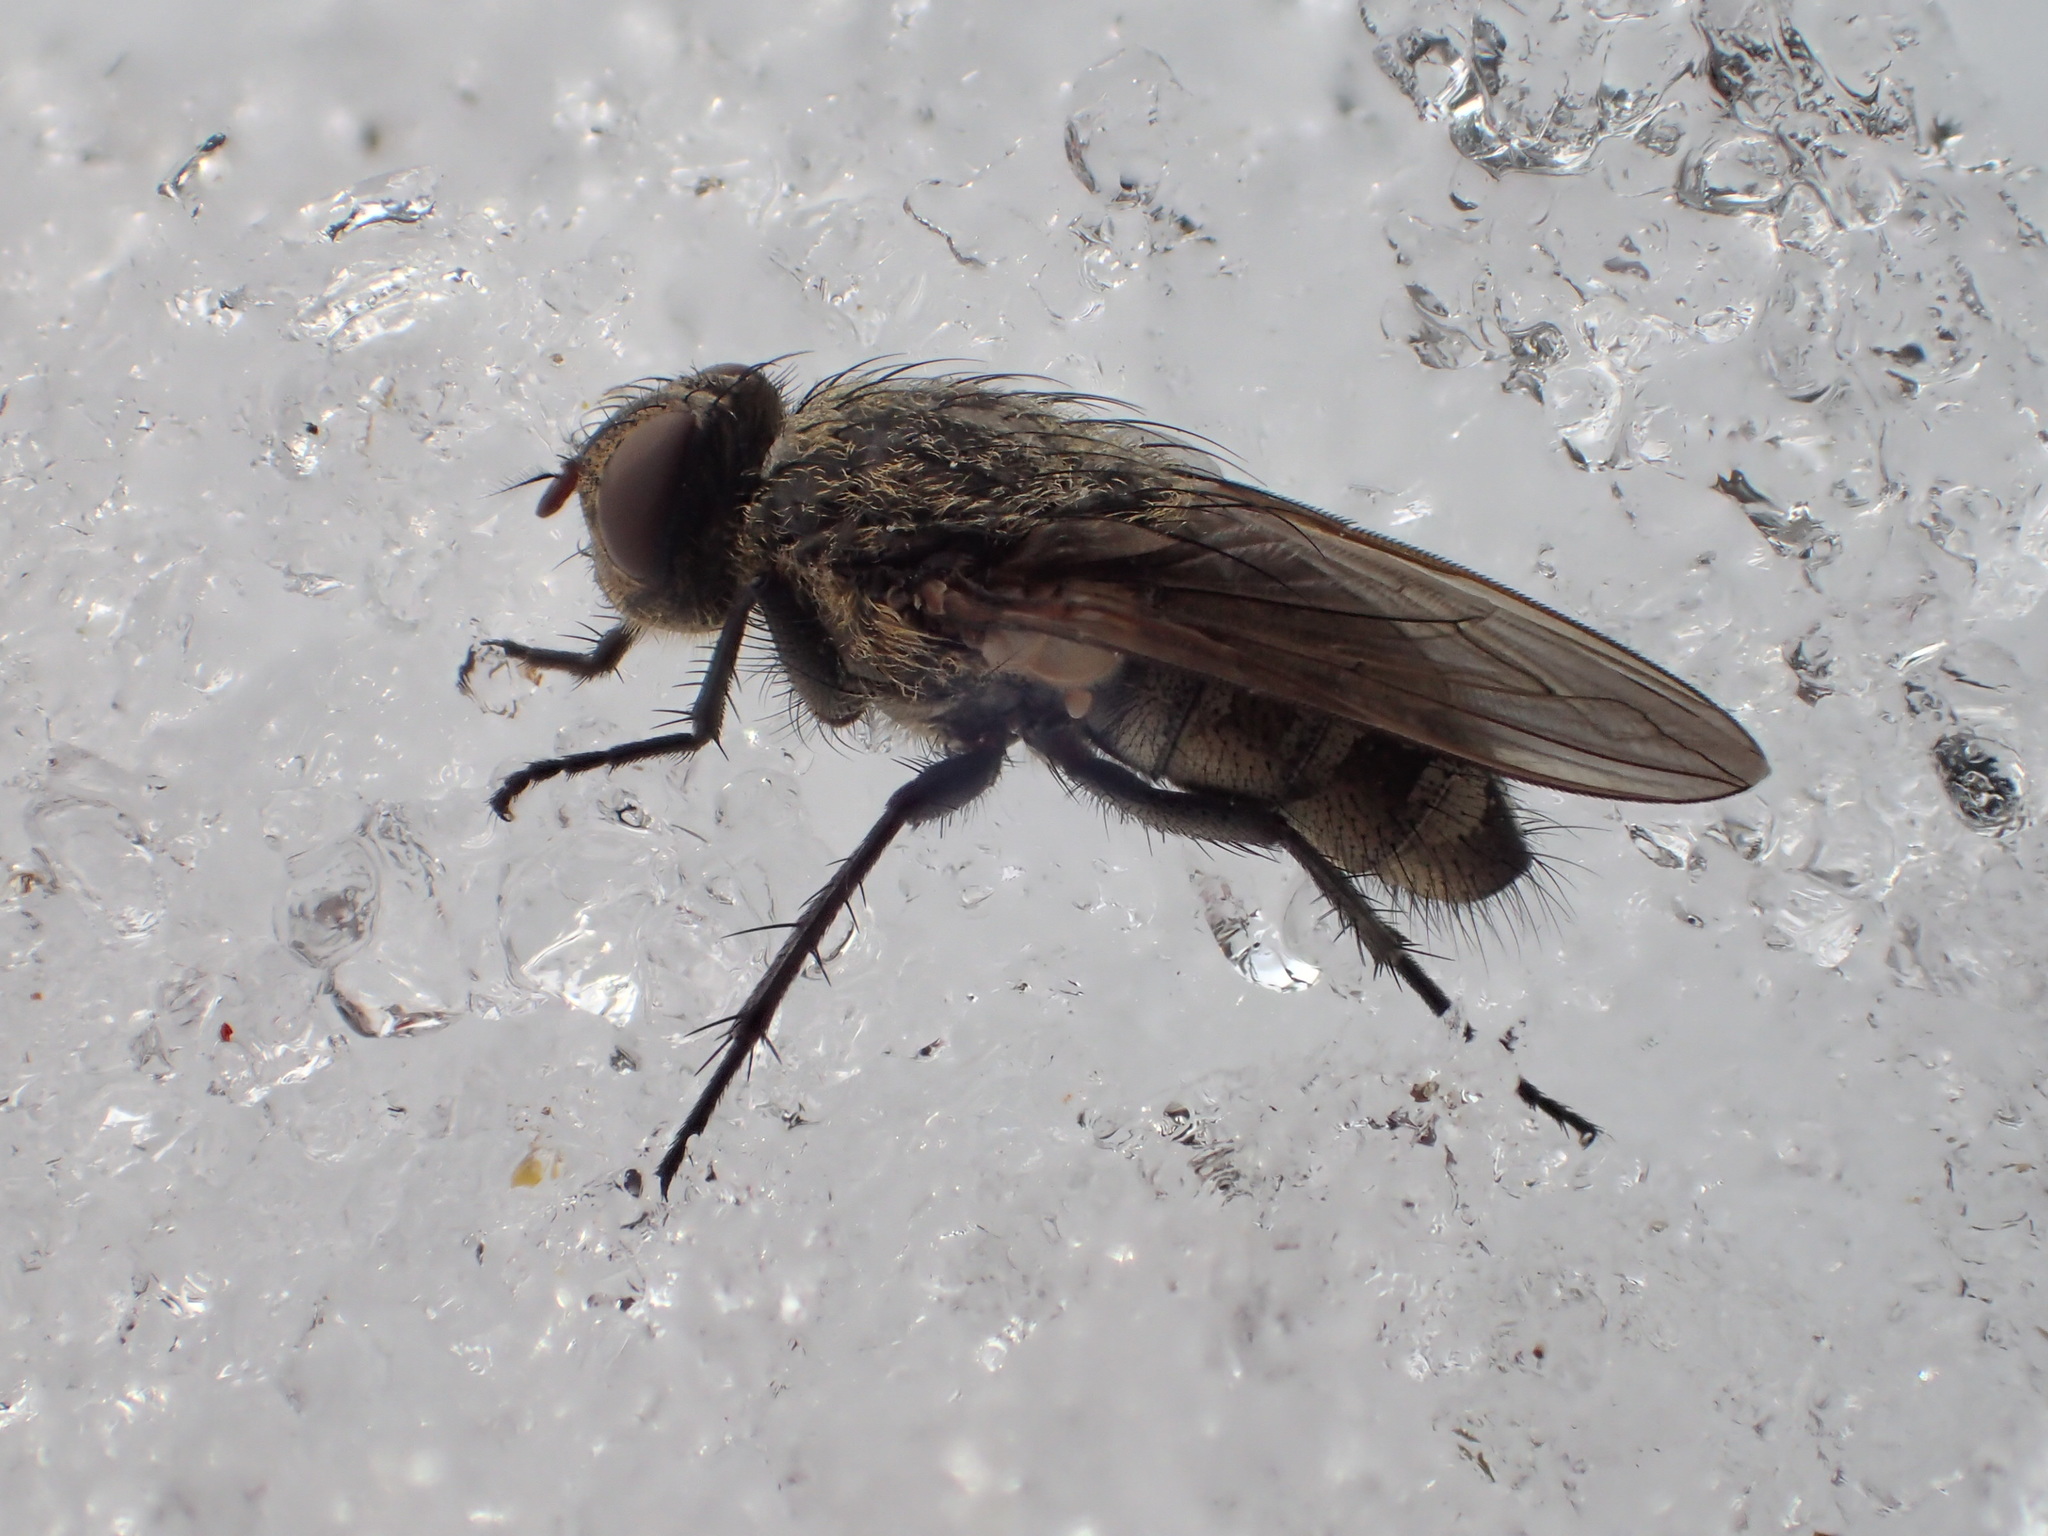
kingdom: Animalia
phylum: Arthropoda
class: Insecta
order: Diptera
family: Polleniidae
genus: Pollenia
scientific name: Pollenia
